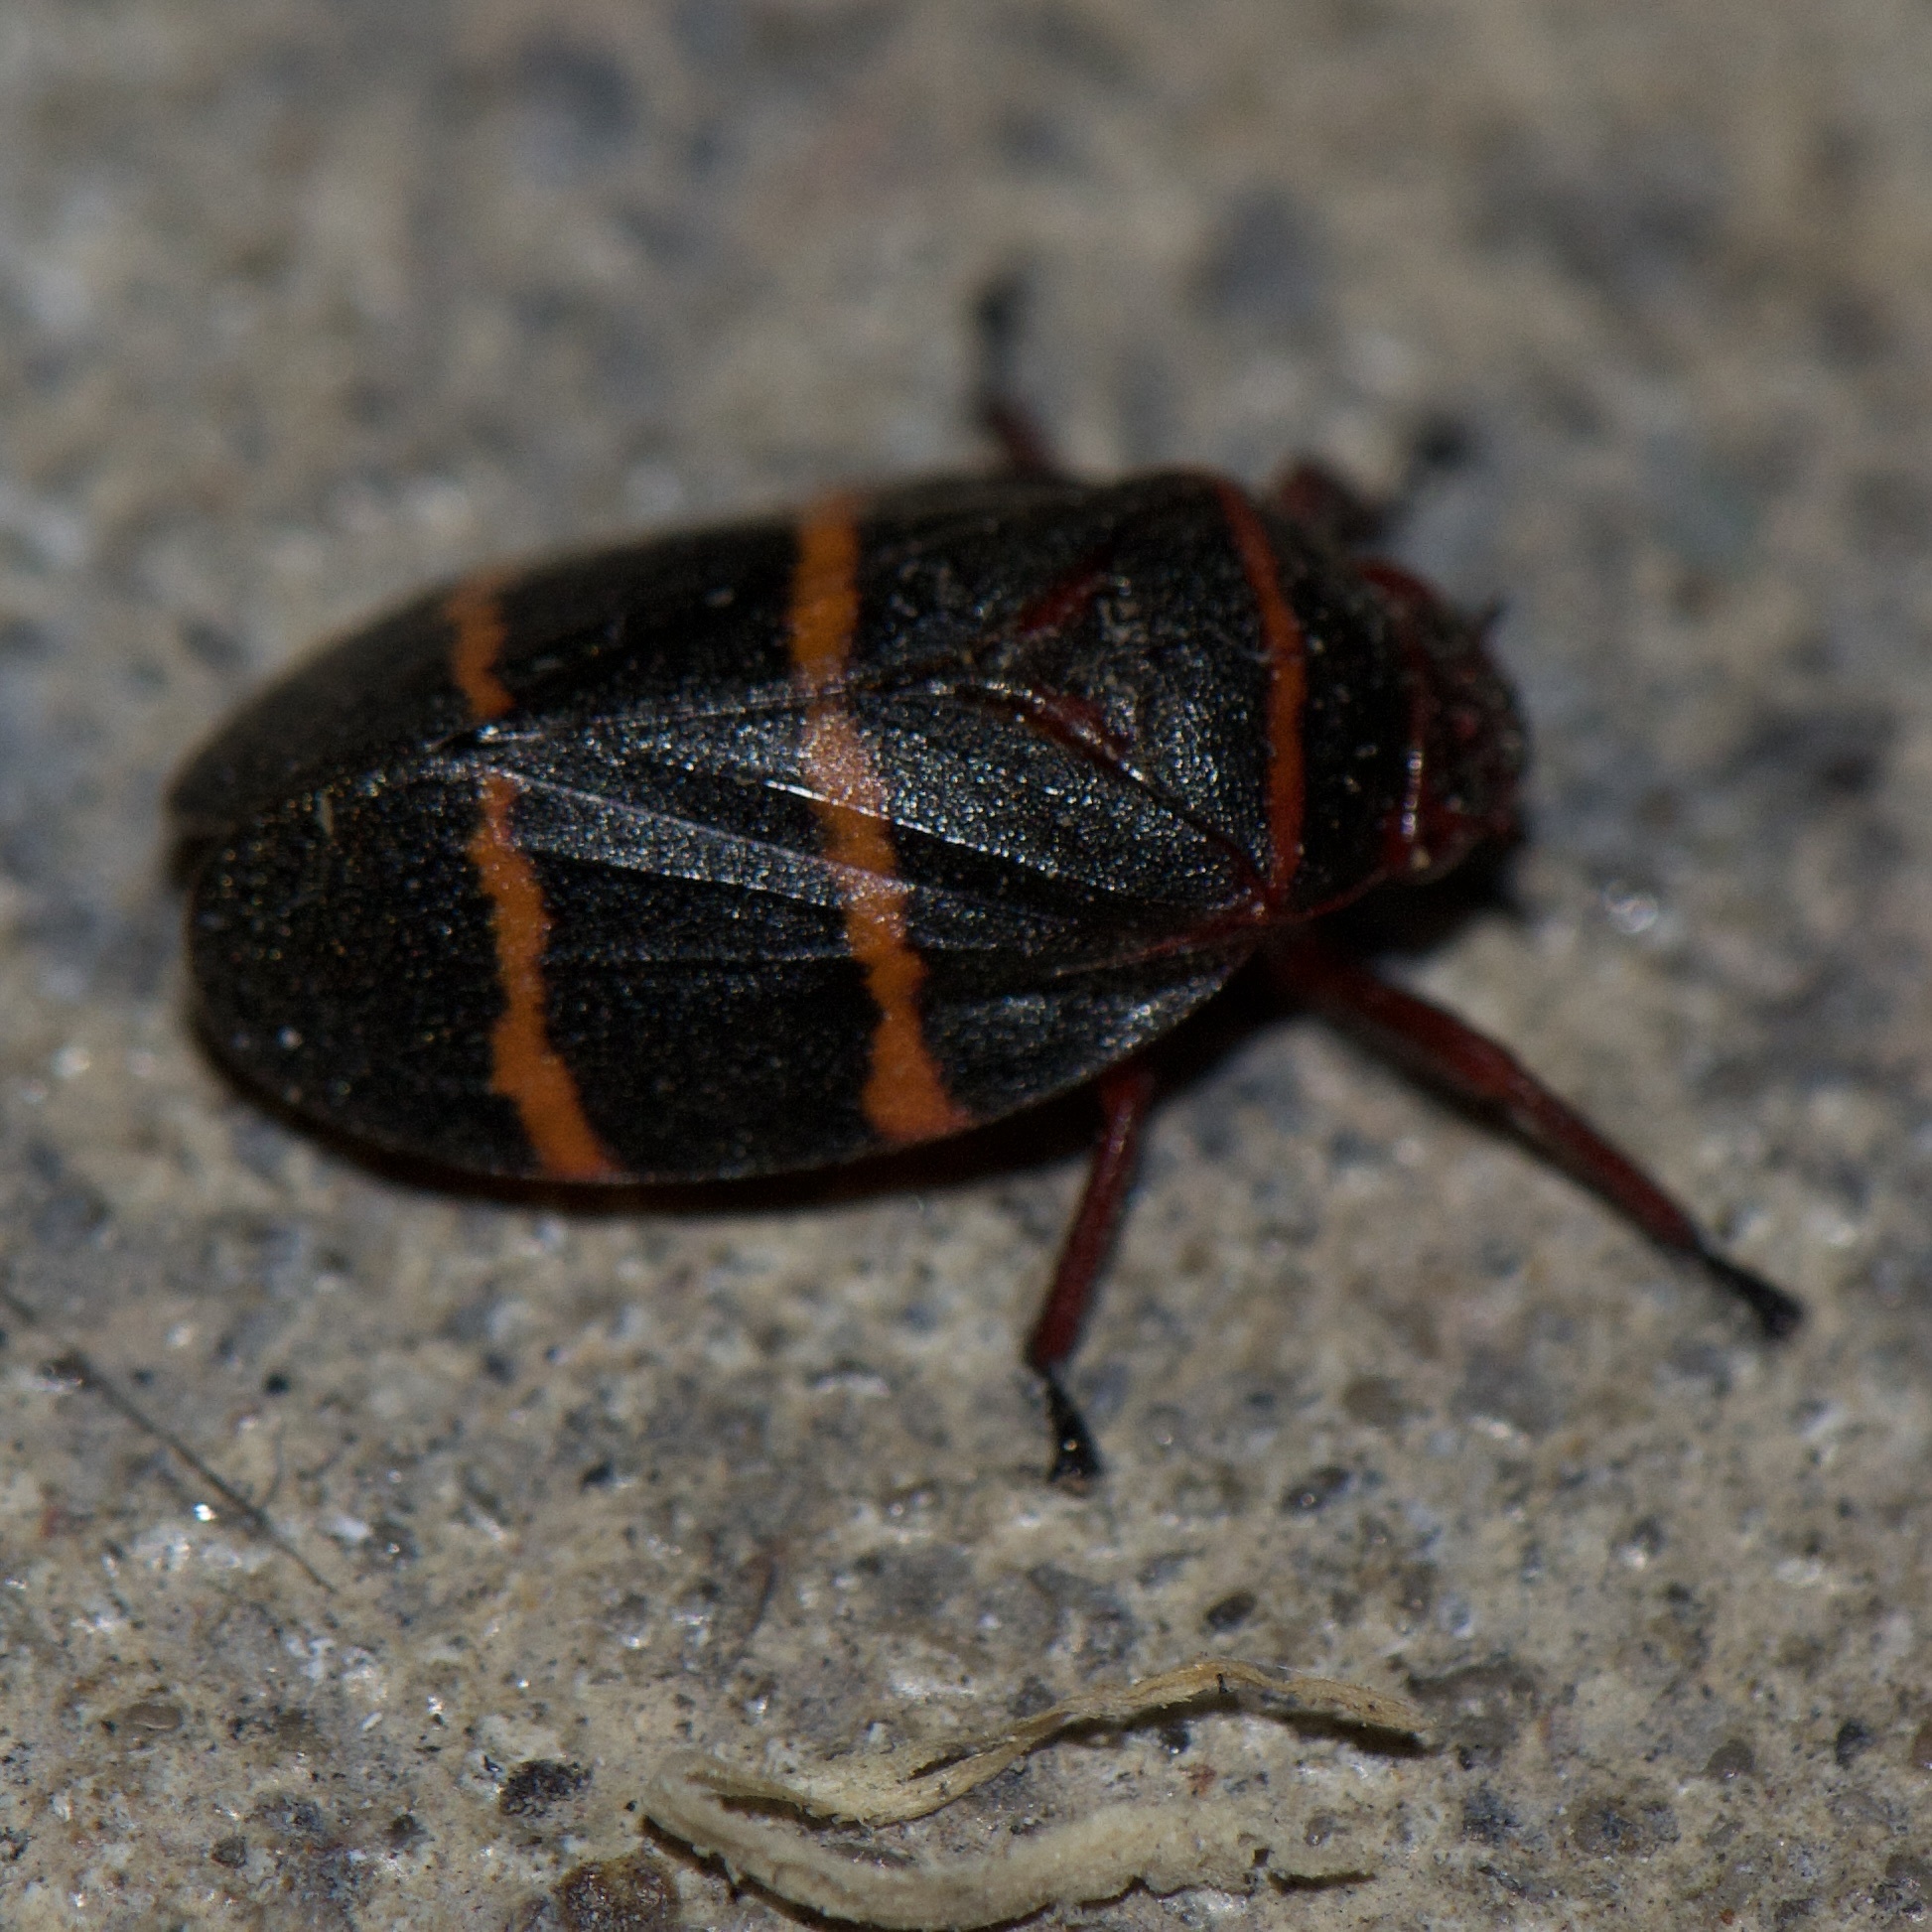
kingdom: Animalia
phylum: Arthropoda
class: Insecta
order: Hemiptera
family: Cercopidae
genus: Prosapia
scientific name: Prosapia bicincta
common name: Twolined spittlebug
